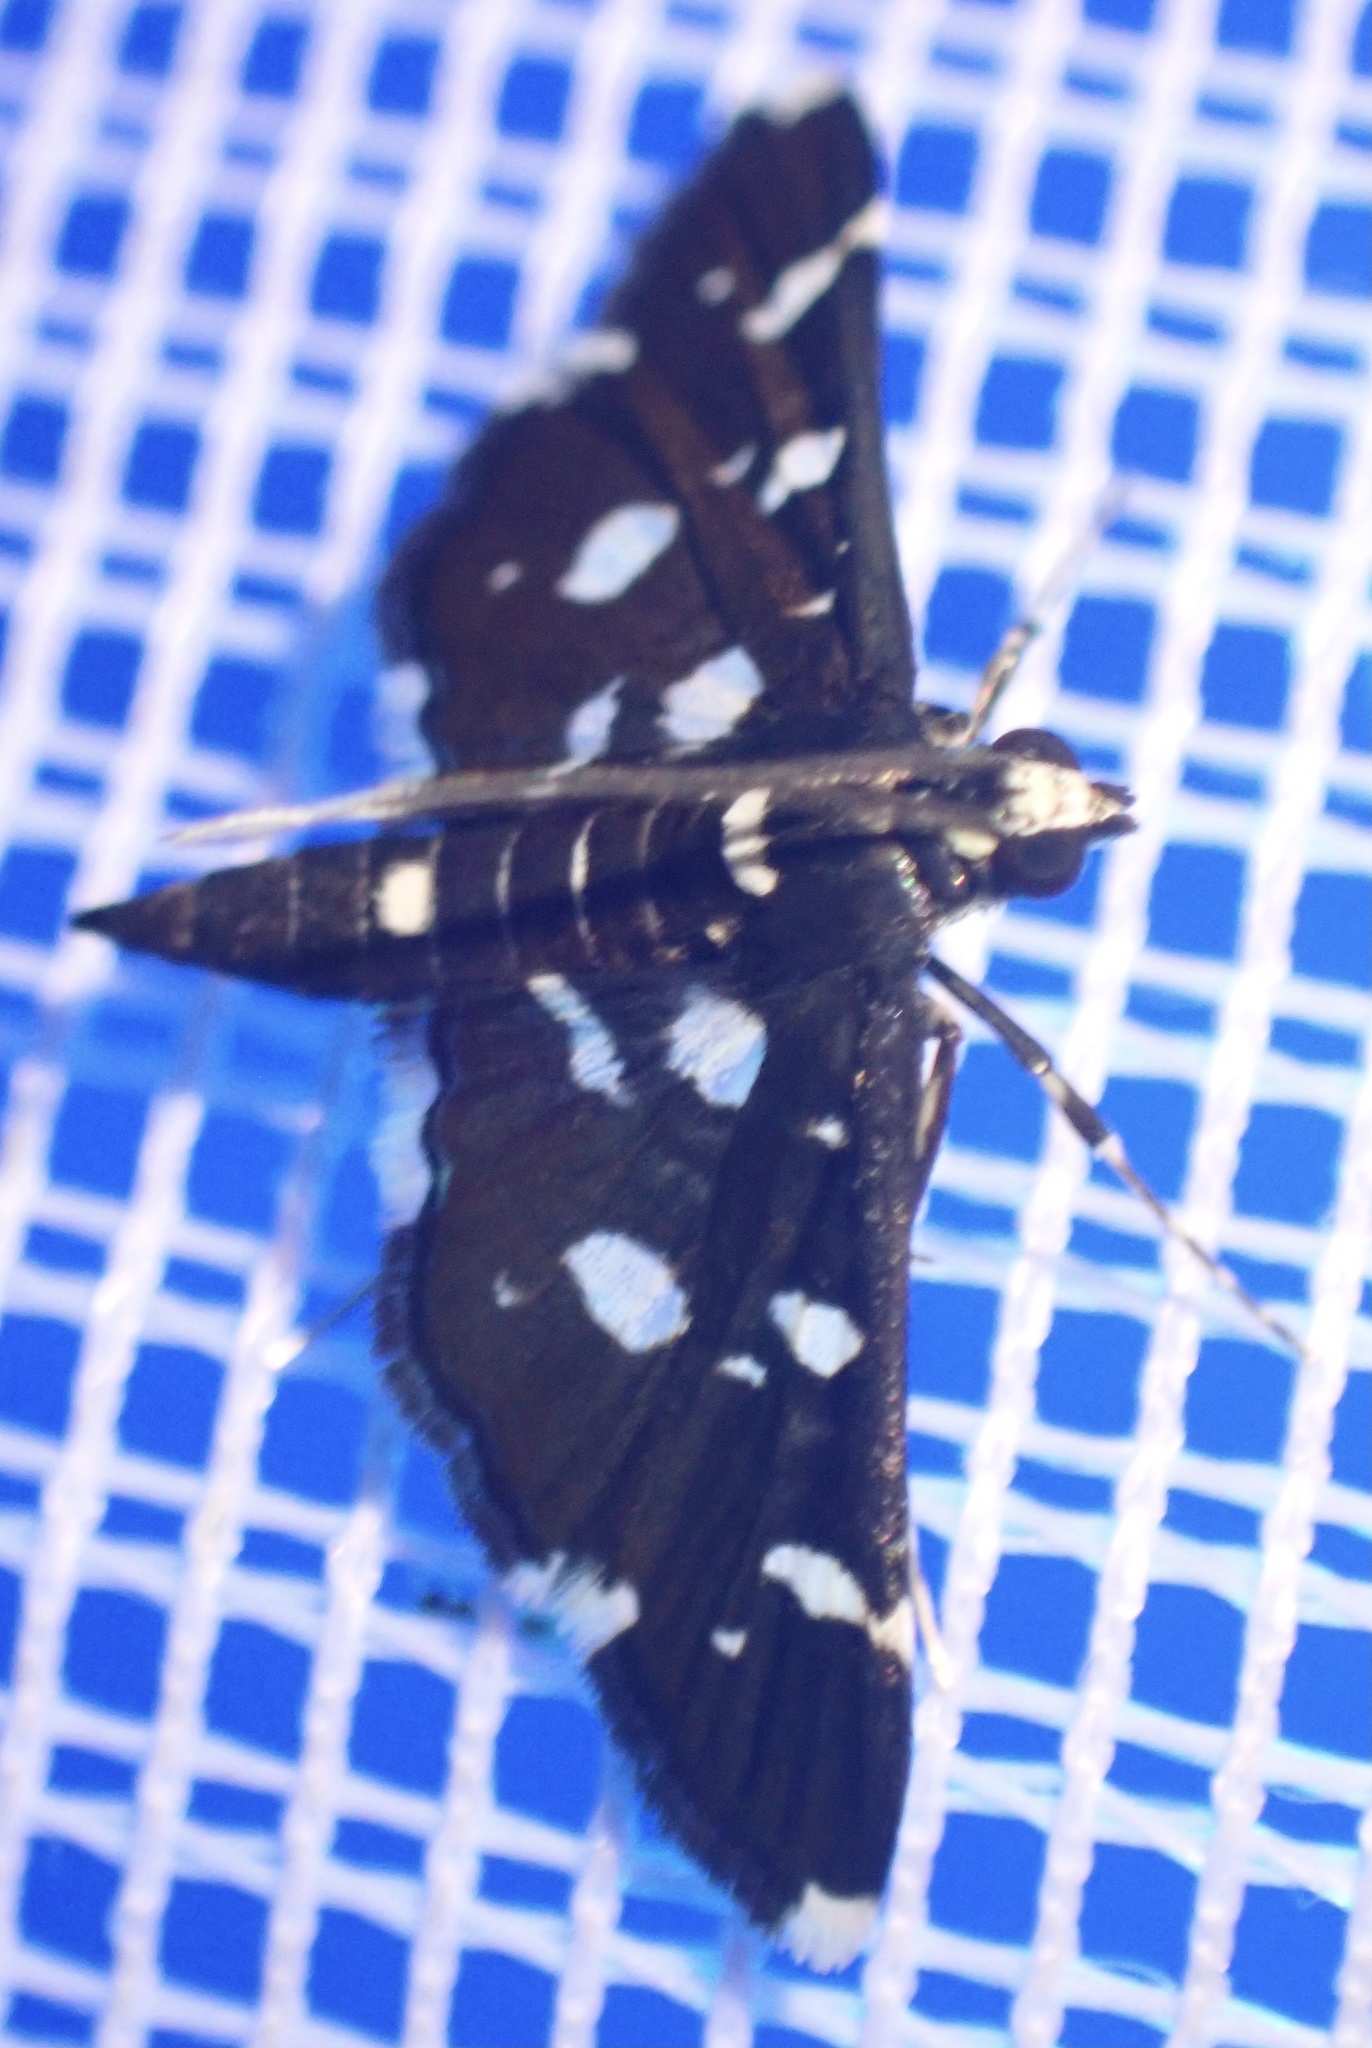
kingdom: Animalia
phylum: Arthropoda
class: Insecta
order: Lepidoptera
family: Crambidae
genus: Bocchoris
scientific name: Bocchoris inspersalis
